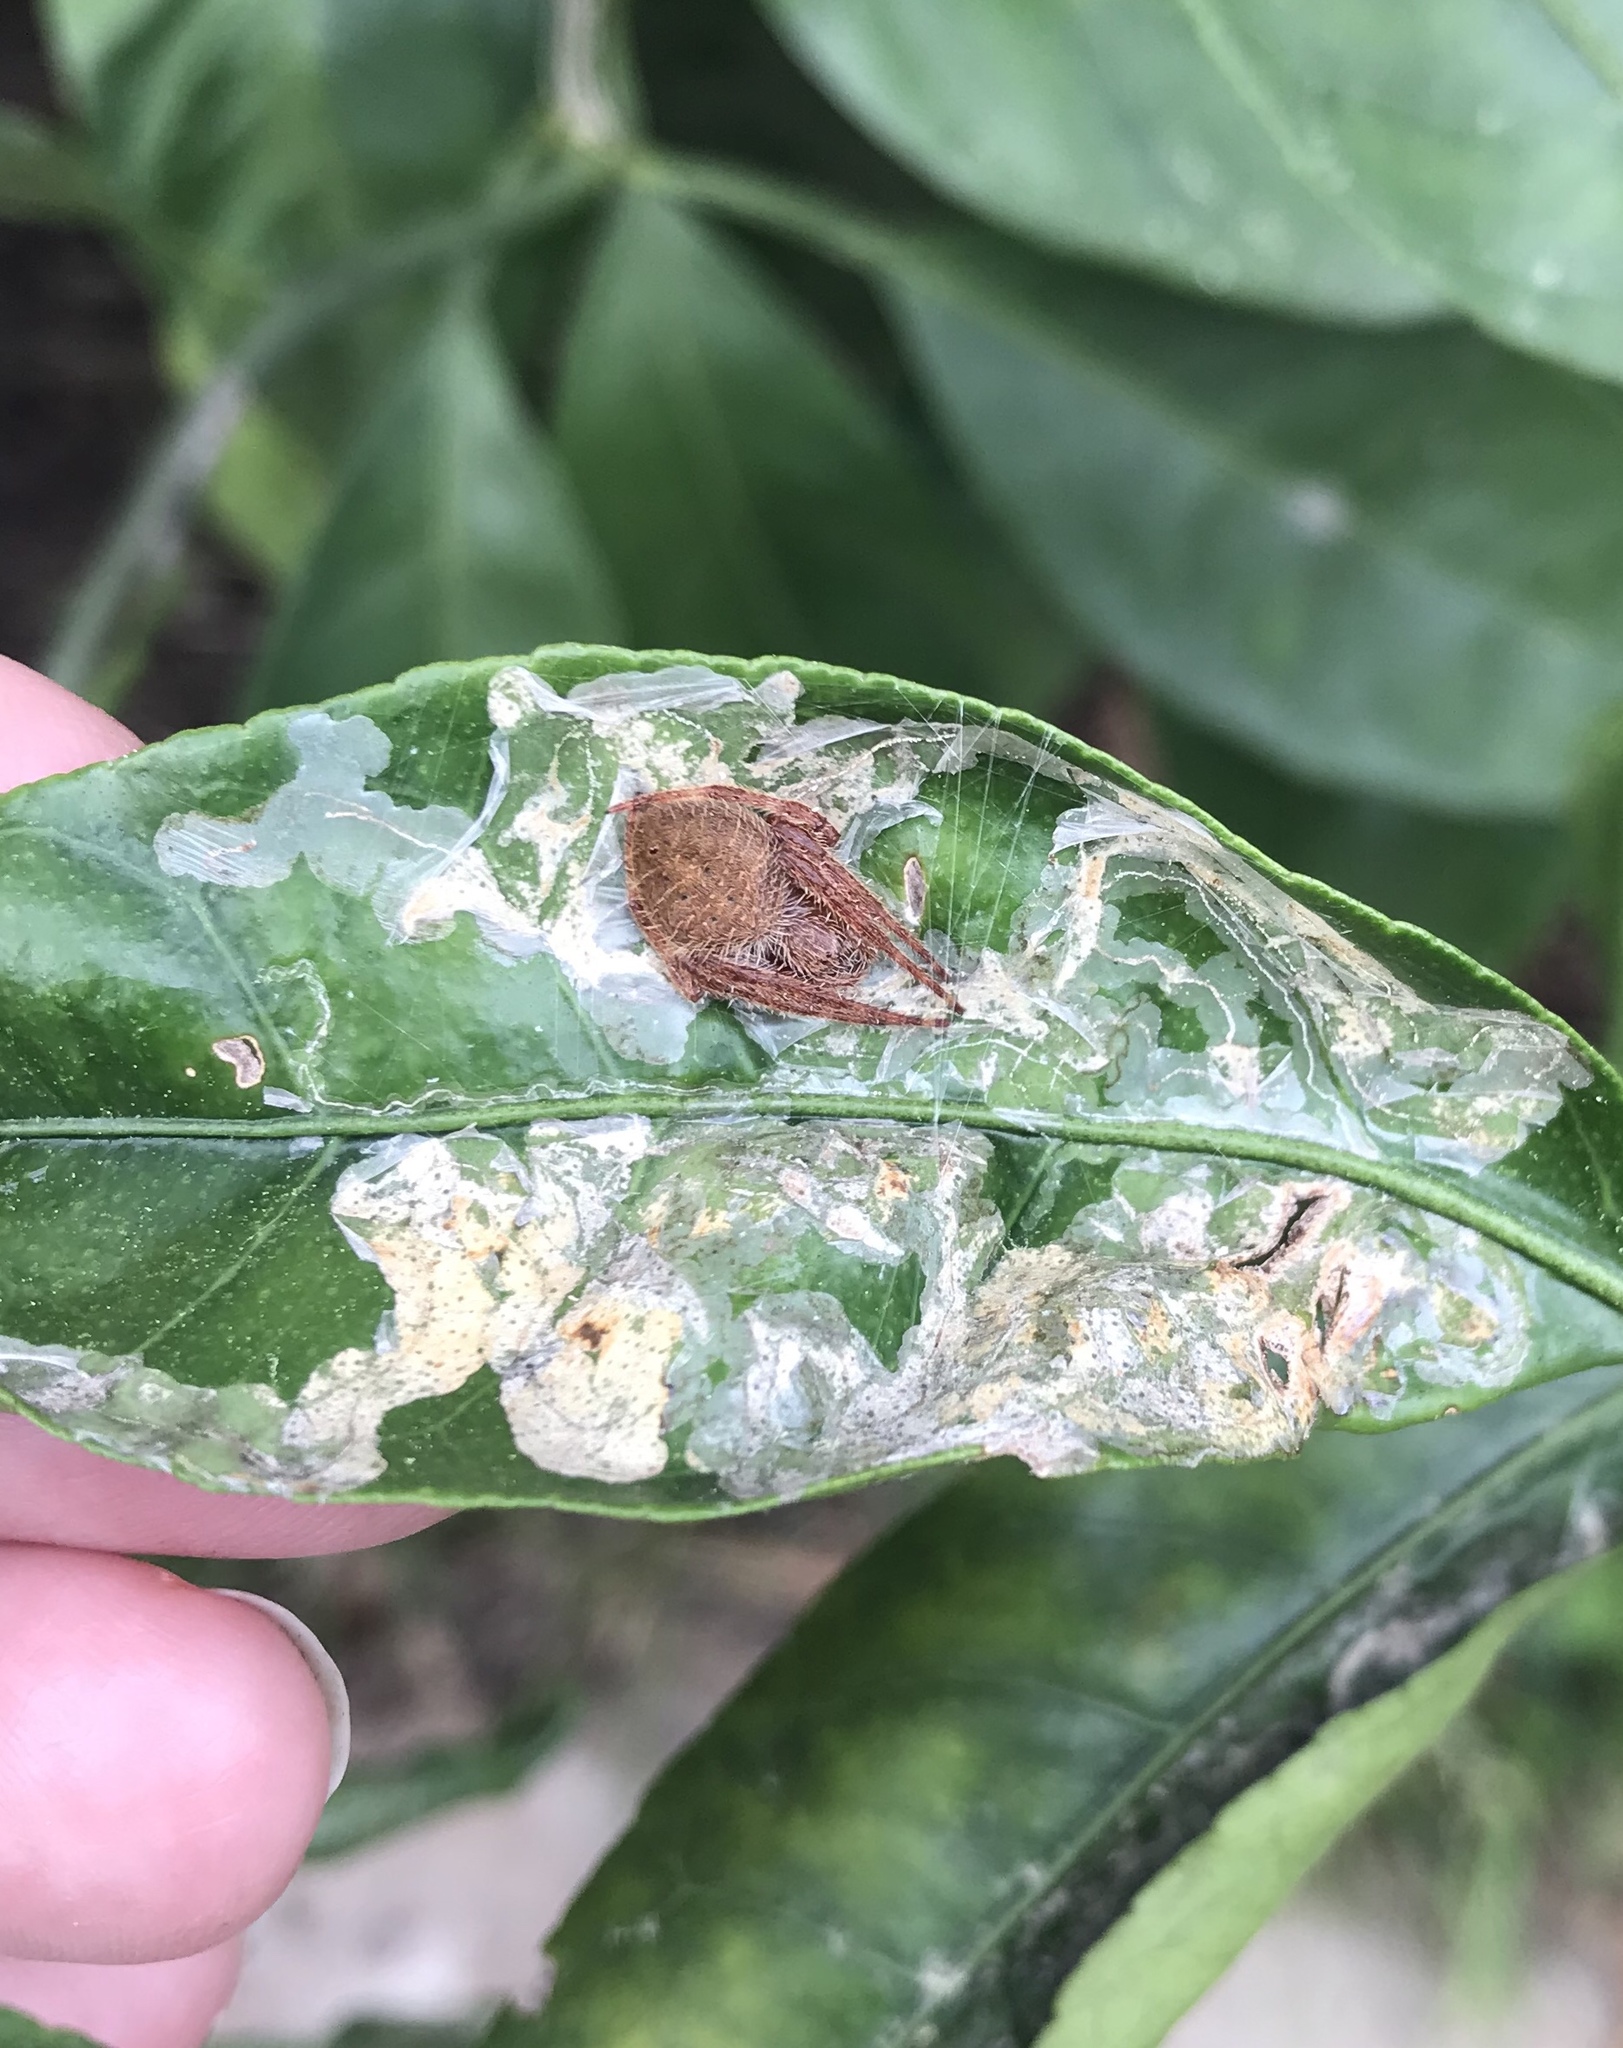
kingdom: Animalia
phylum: Arthropoda
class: Arachnida
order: Araneae
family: Araneidae
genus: Eriophora
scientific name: Eriophora ravilla
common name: Orb weavers
